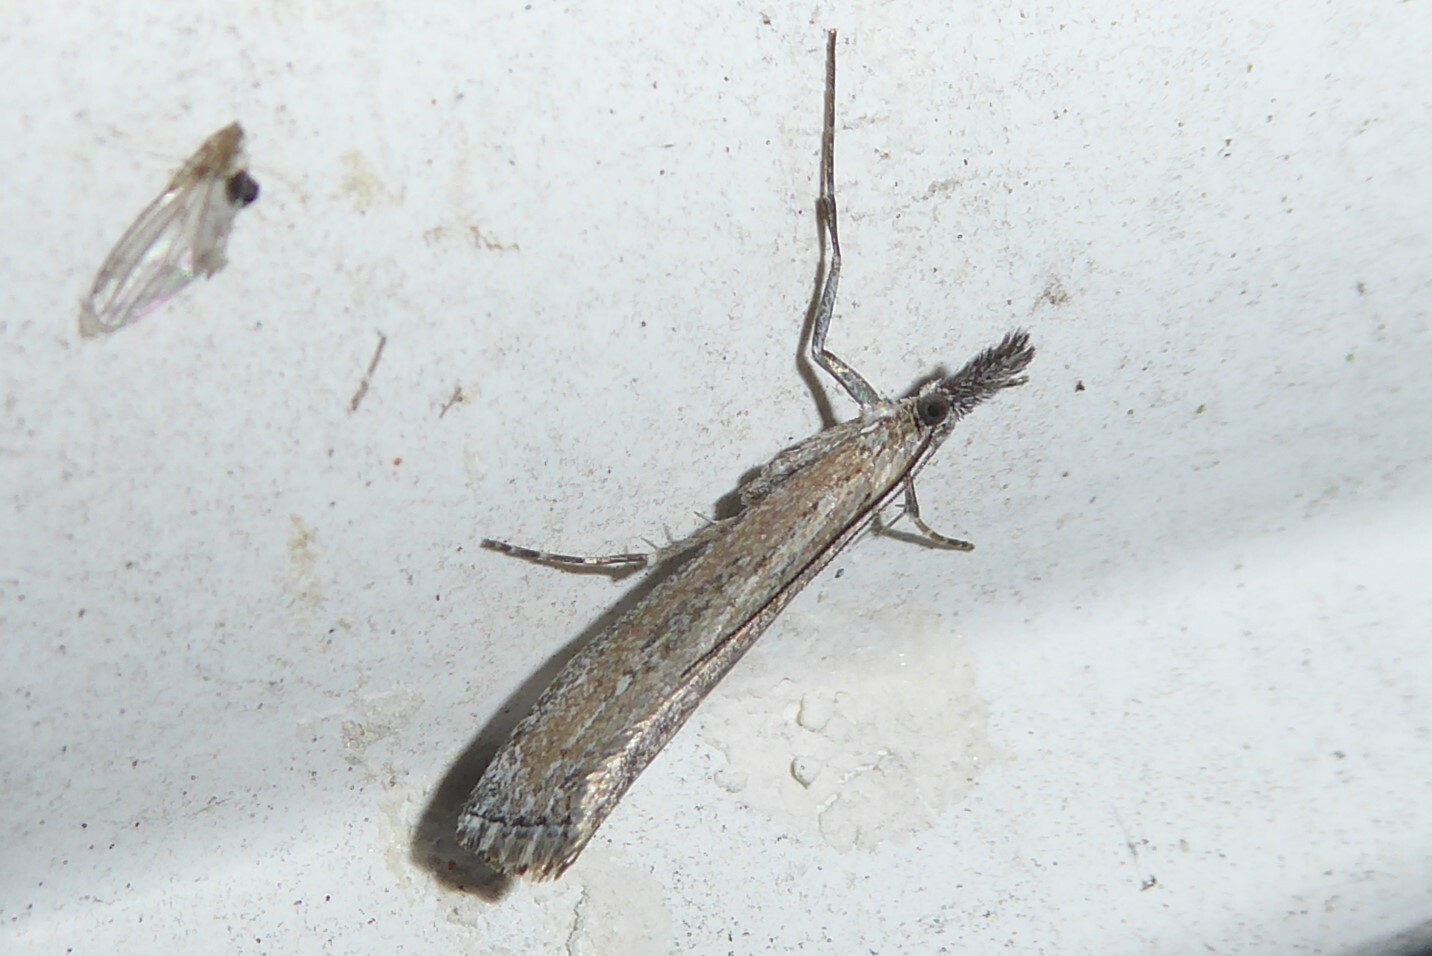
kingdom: Animalia
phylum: Arthropoda
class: Insecta
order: Lepidoptera
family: Crambidae
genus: Orocrambus
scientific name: Orocrambus cyclopicus
